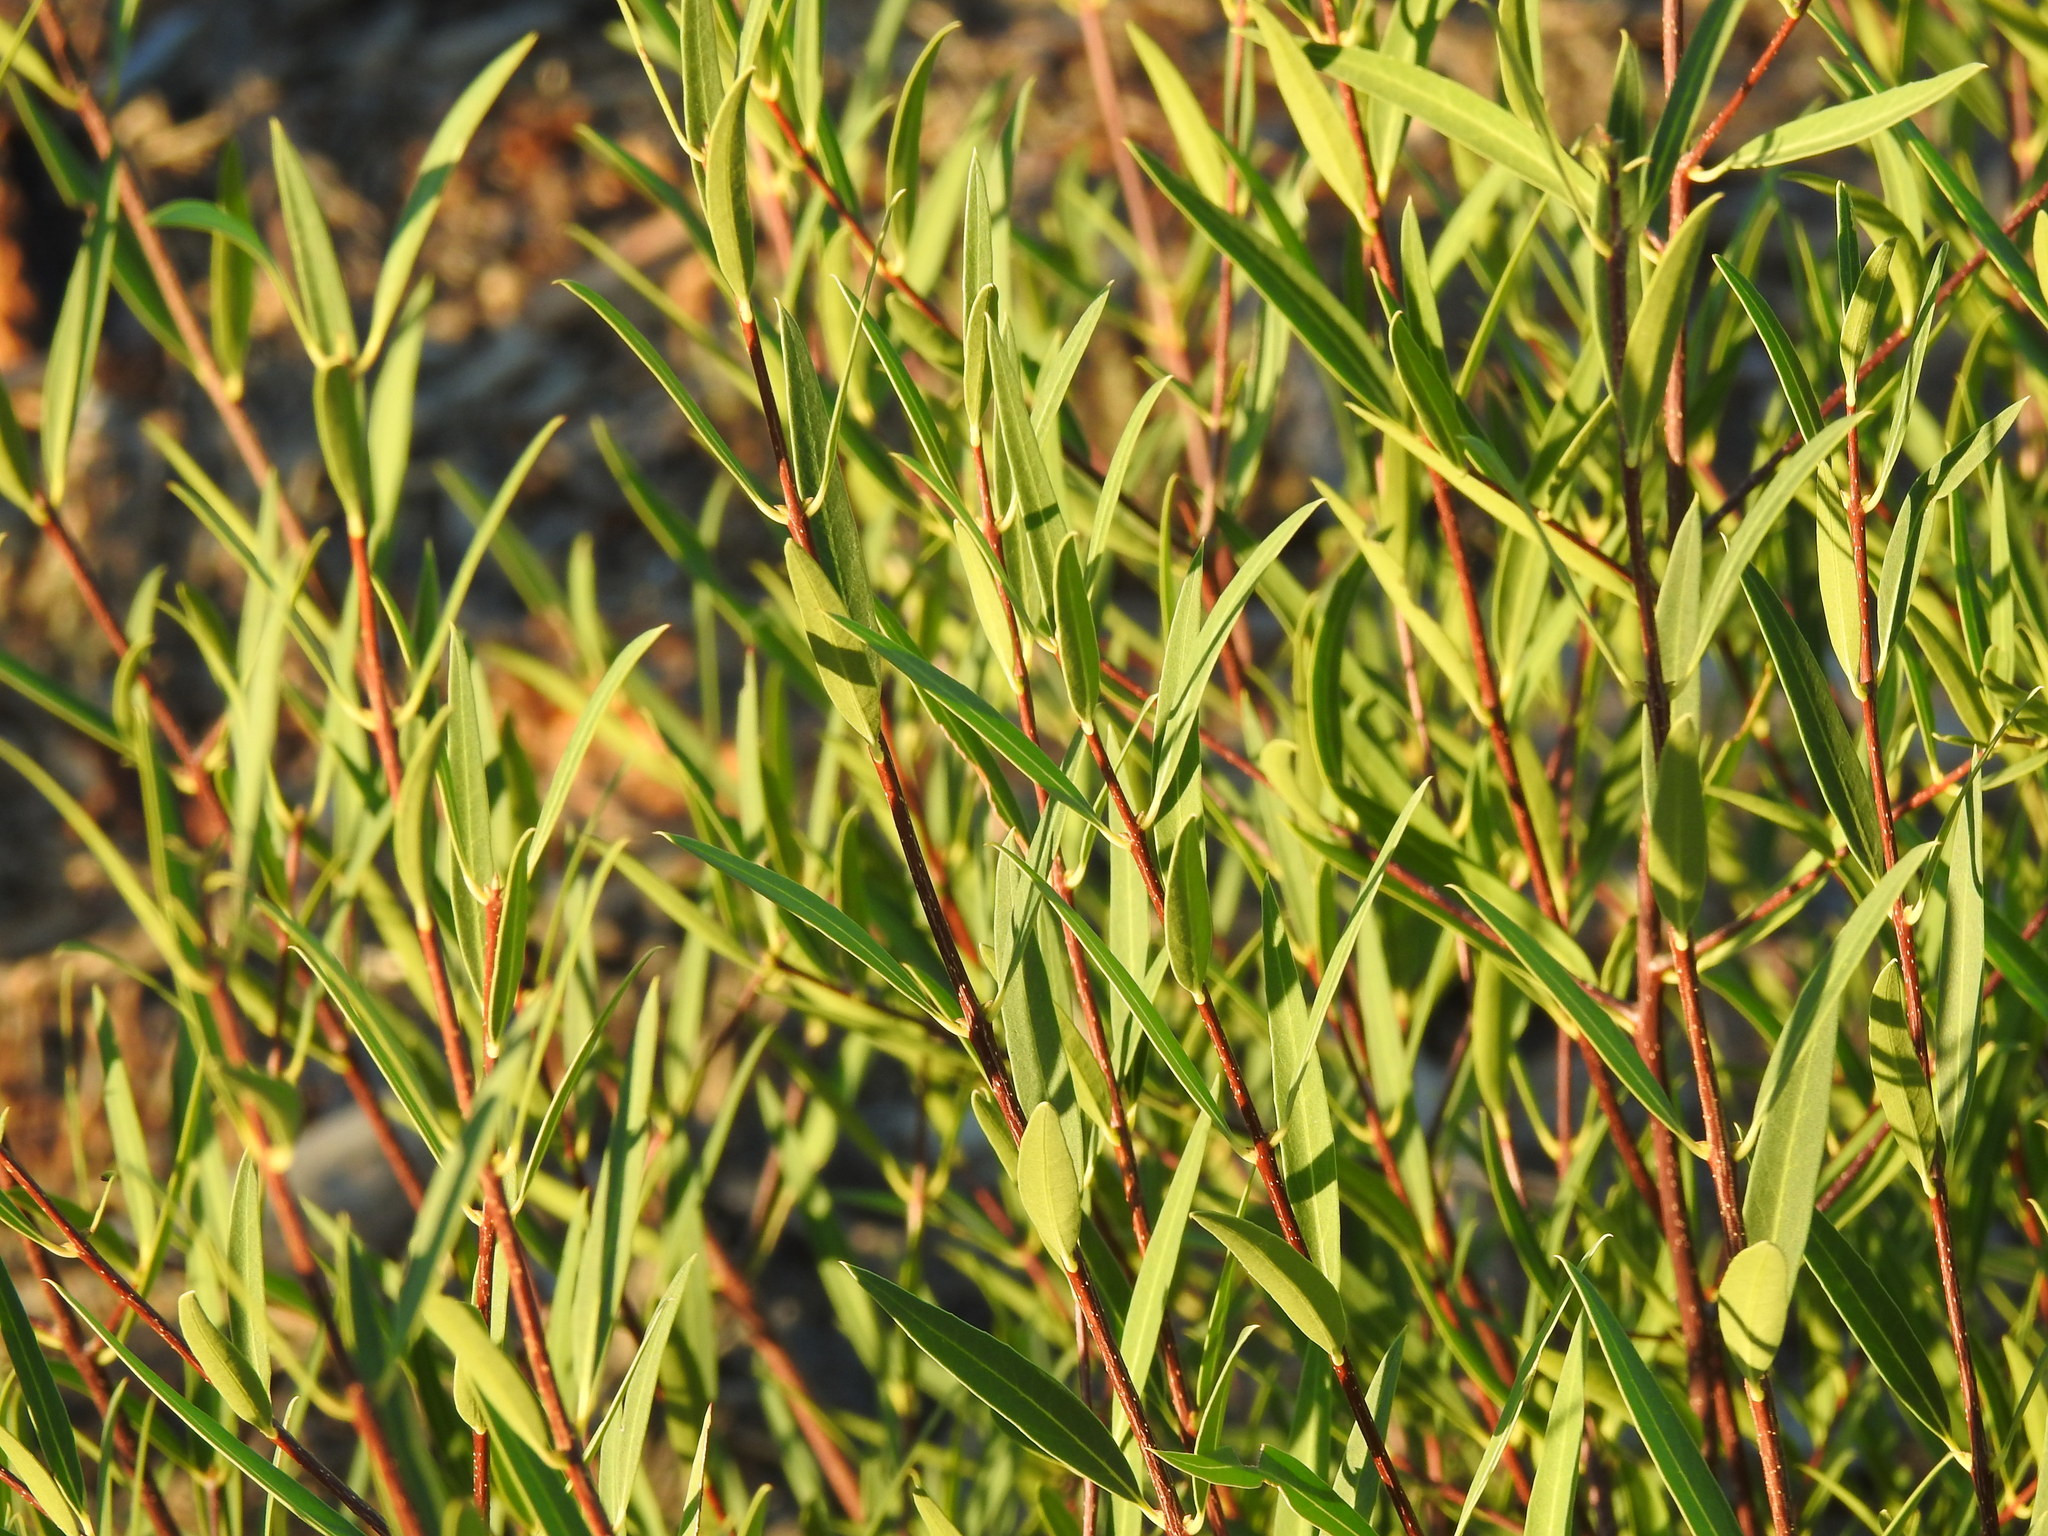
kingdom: Plantae
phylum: Tracheophyta
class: Magnoliopsida
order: Lamiales
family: Oleaceae
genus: Phillyrea
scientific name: Phillyrea angustifolia
